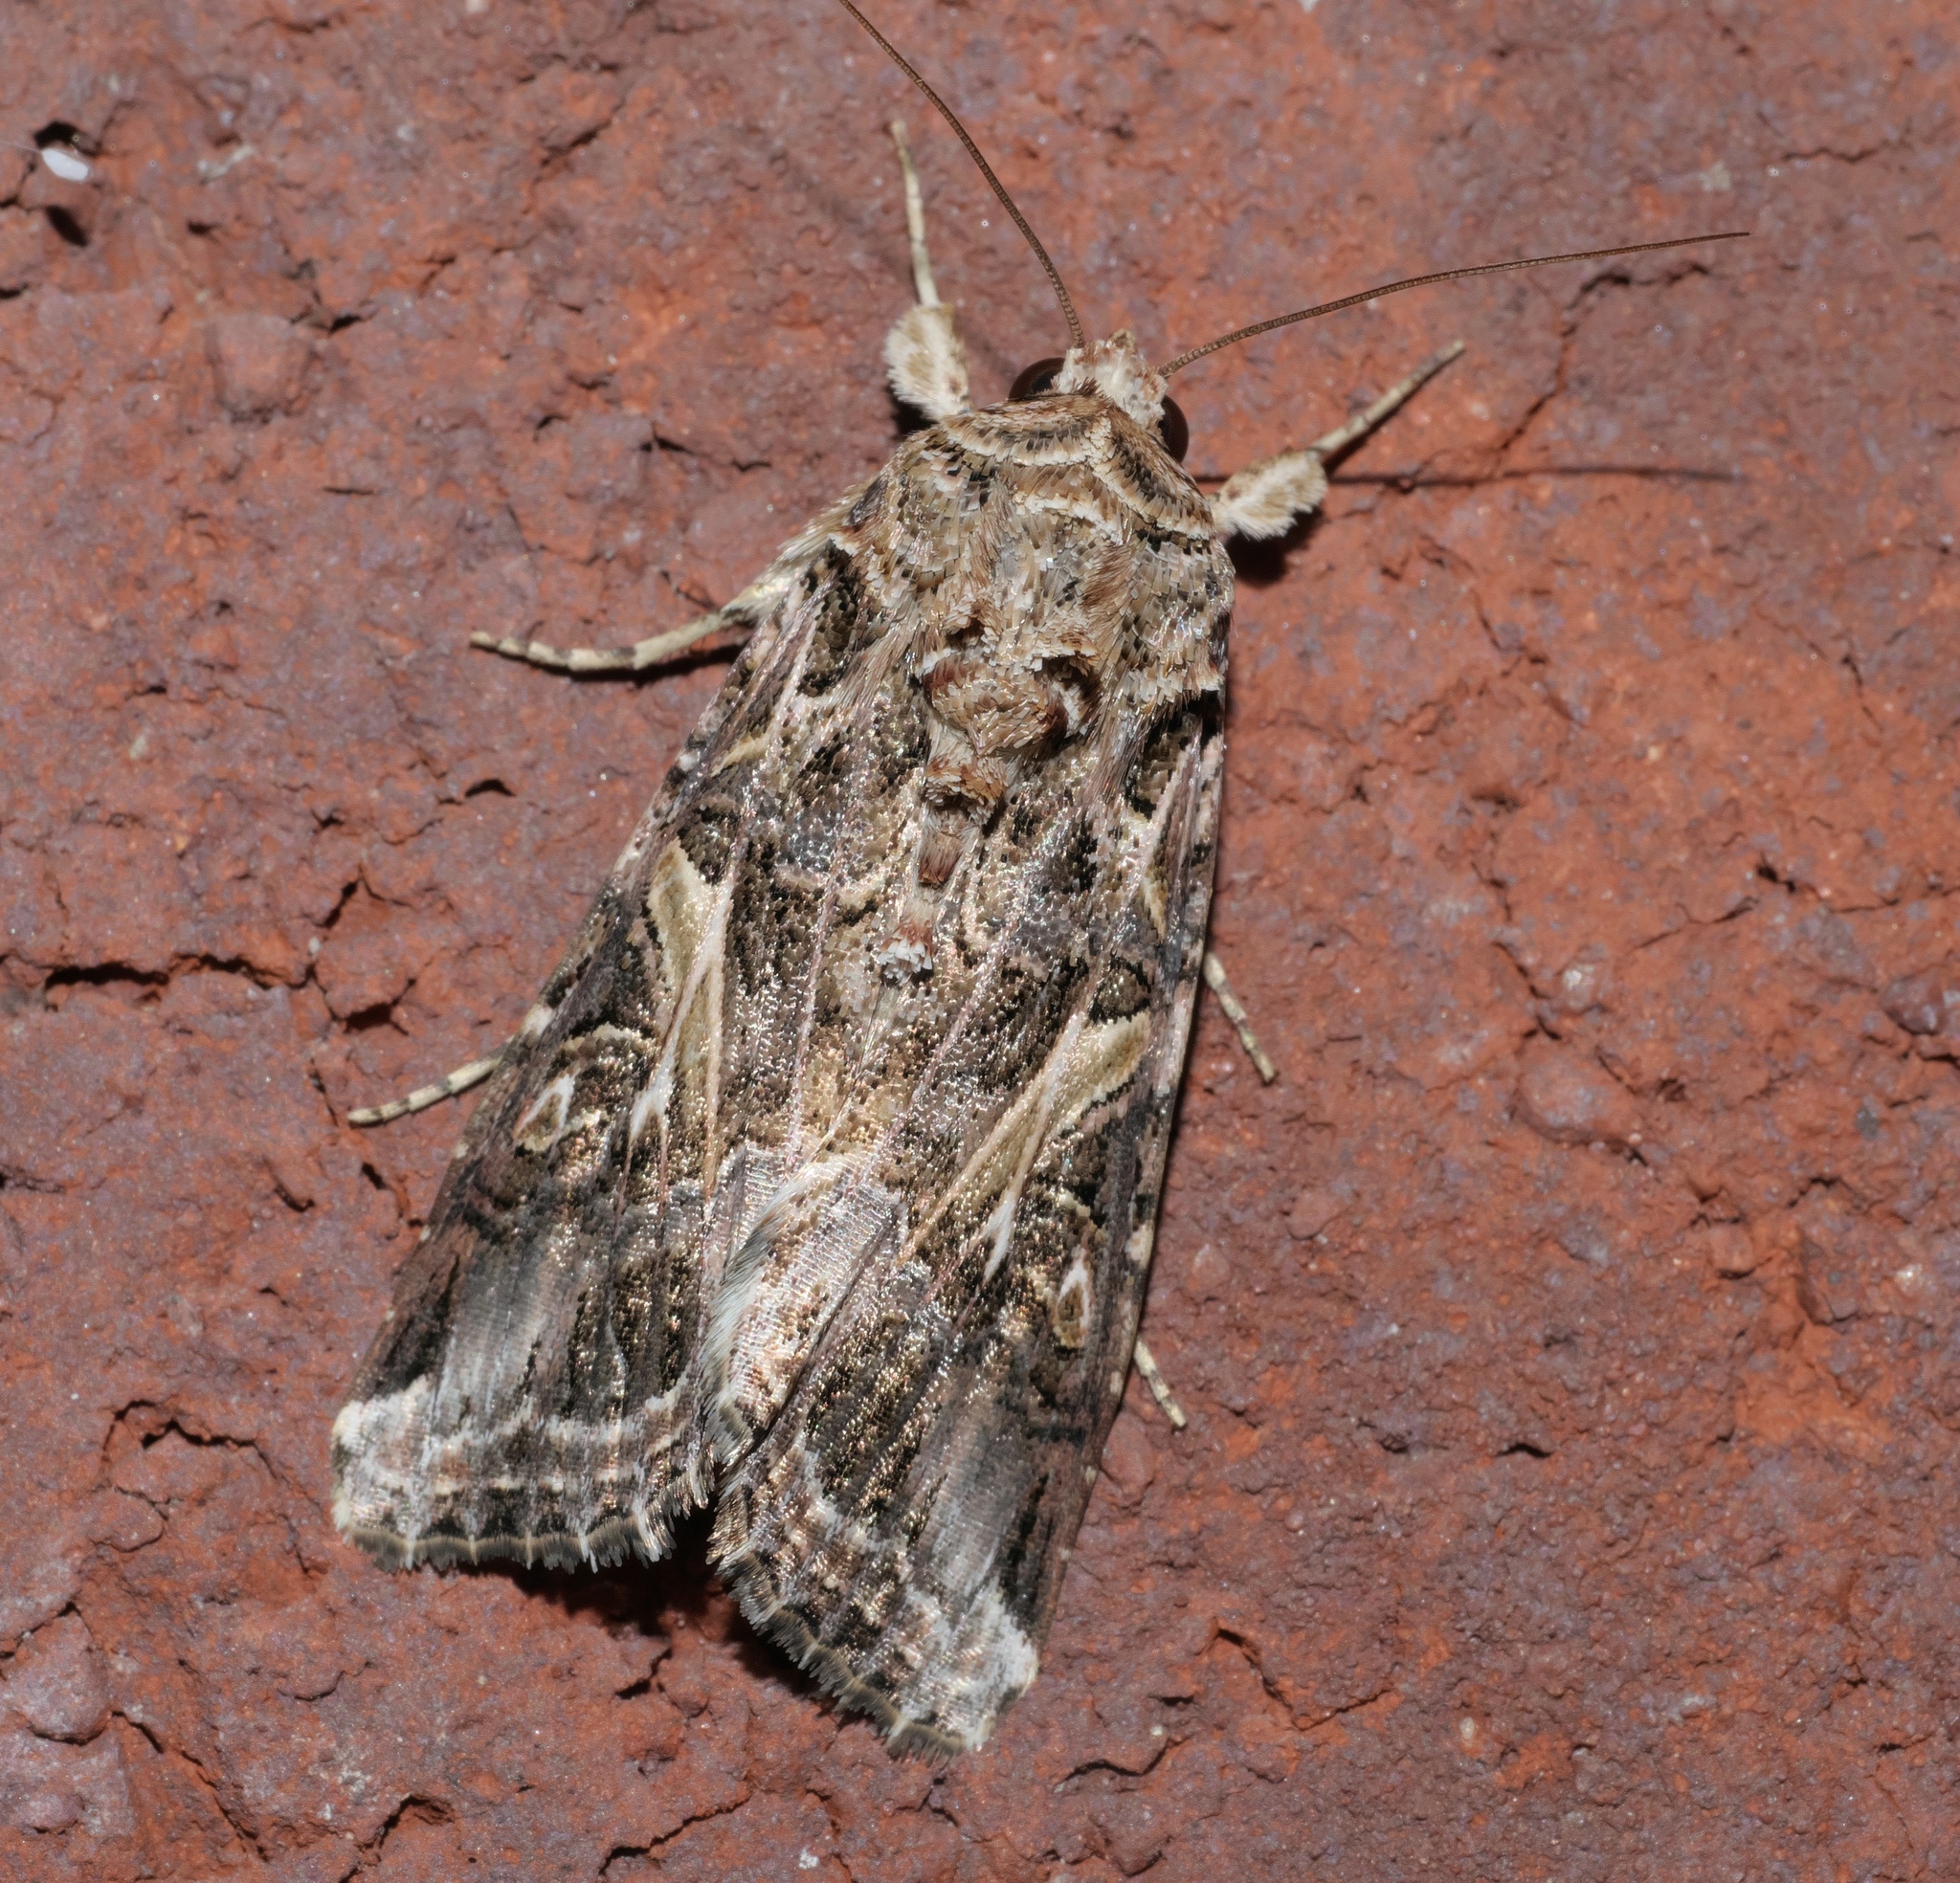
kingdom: Animalia
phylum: Arthropoda
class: Insecta
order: Lepidoptera
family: Noctuidae
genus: Spodoptera
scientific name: Spodoptera ornithogalli
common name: Yellow-striped armyworm
